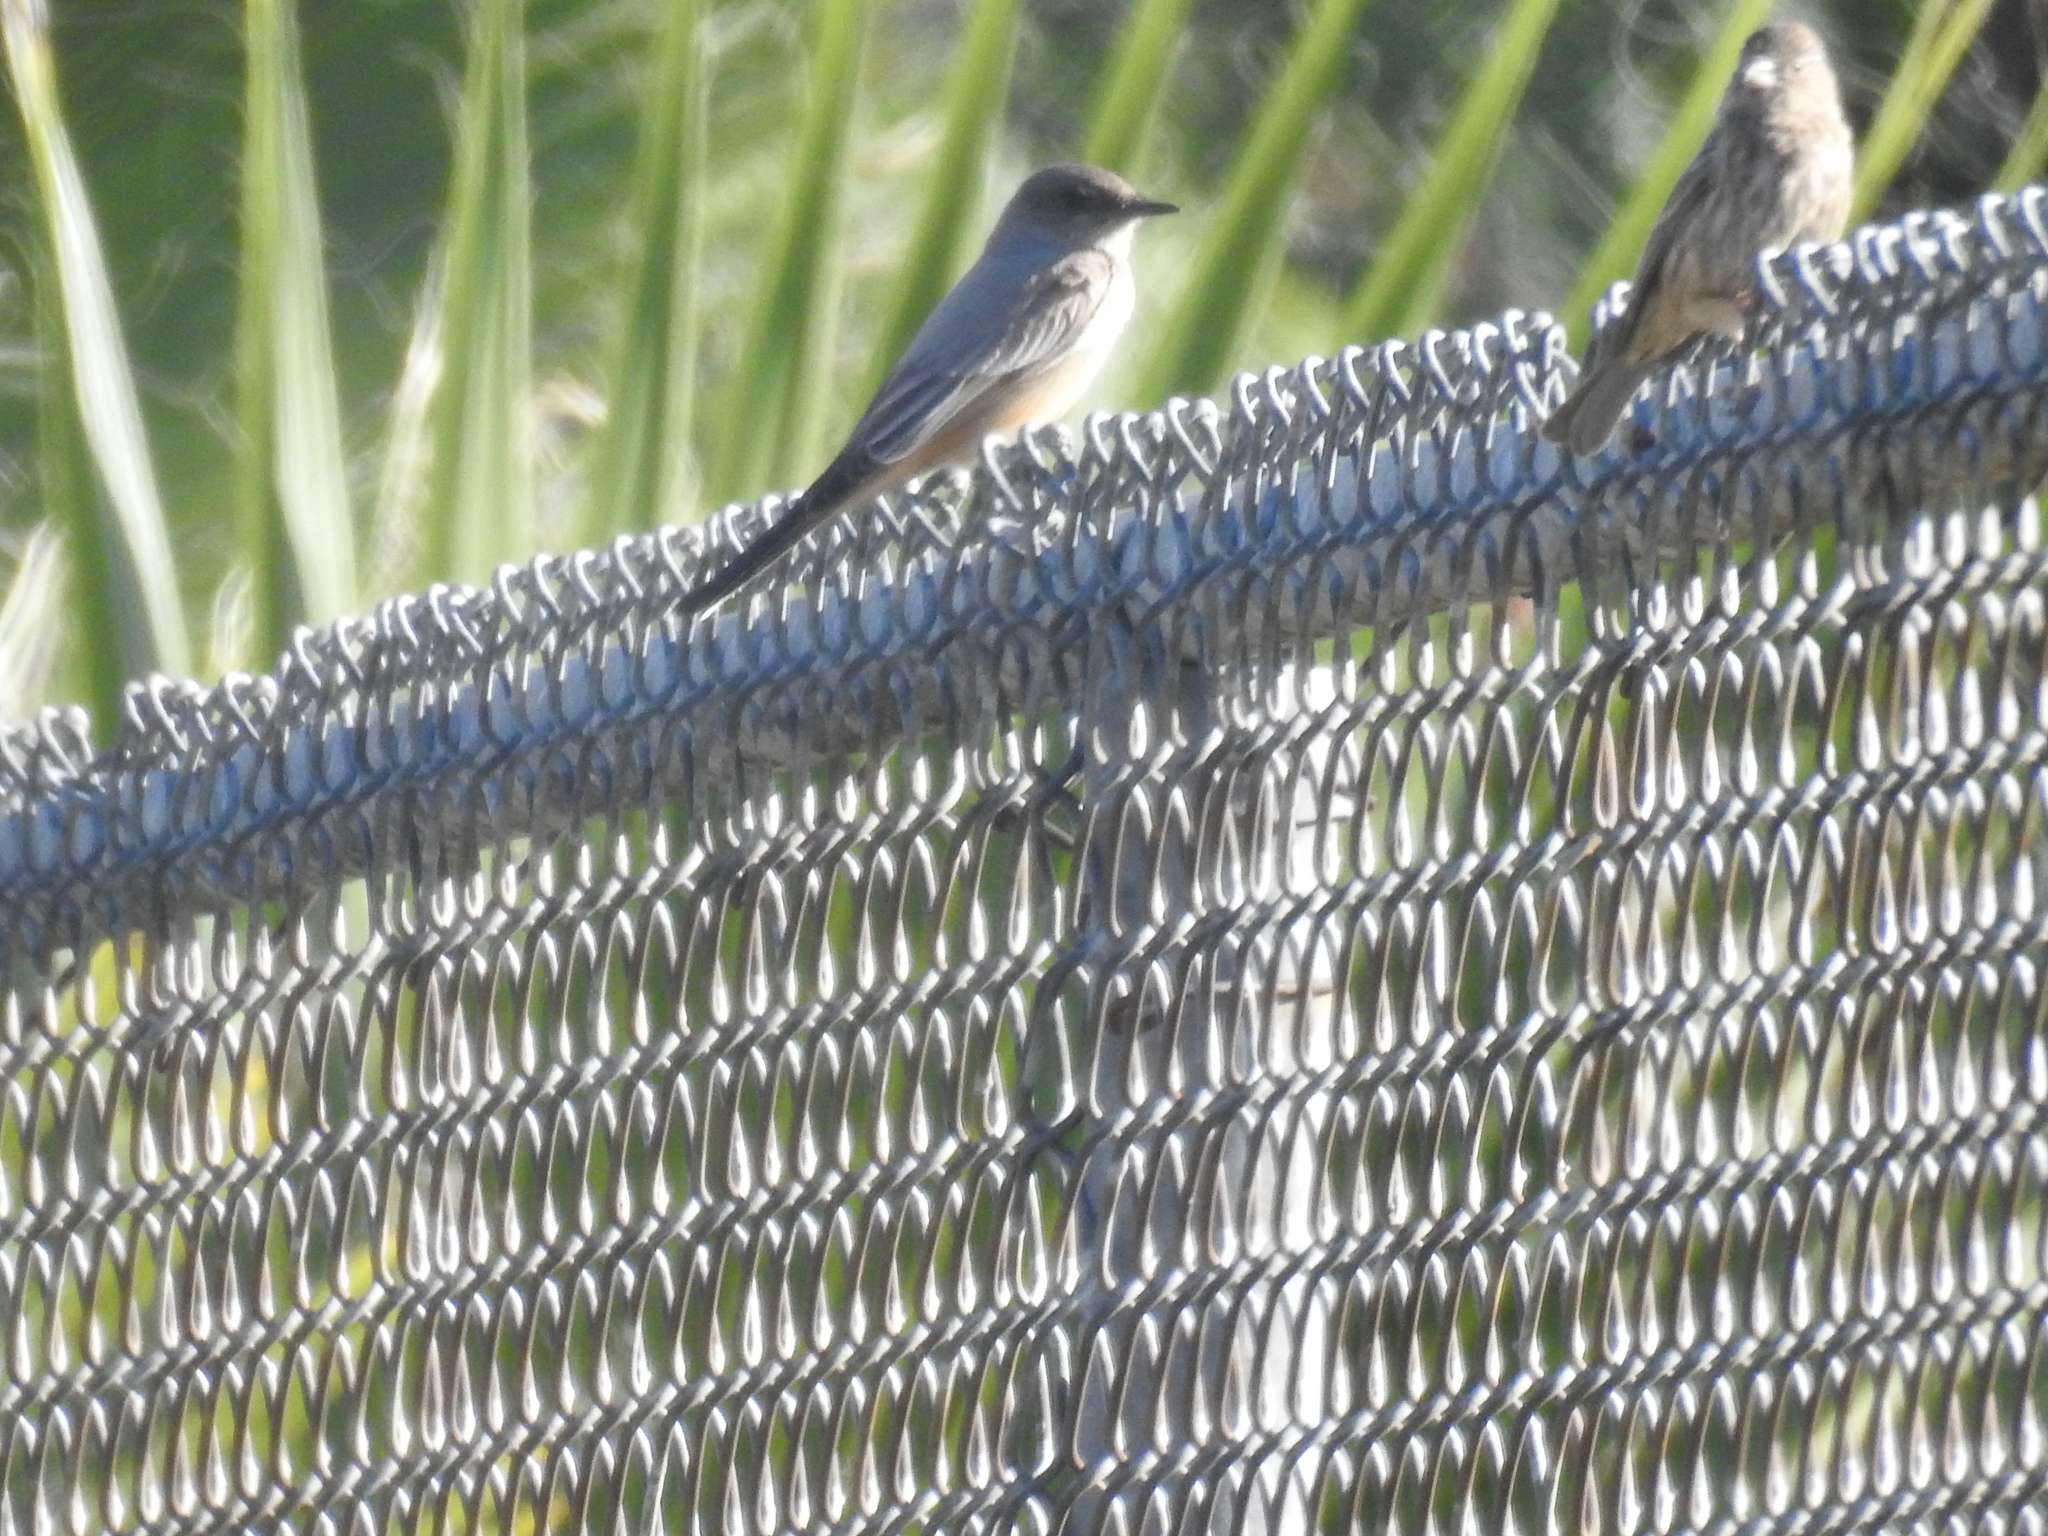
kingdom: Animalia
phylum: Chordata
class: Aves
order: Passeriformes
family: Tyrannidae
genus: Sayornis
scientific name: Sayornis saya
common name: Say's phoebe
